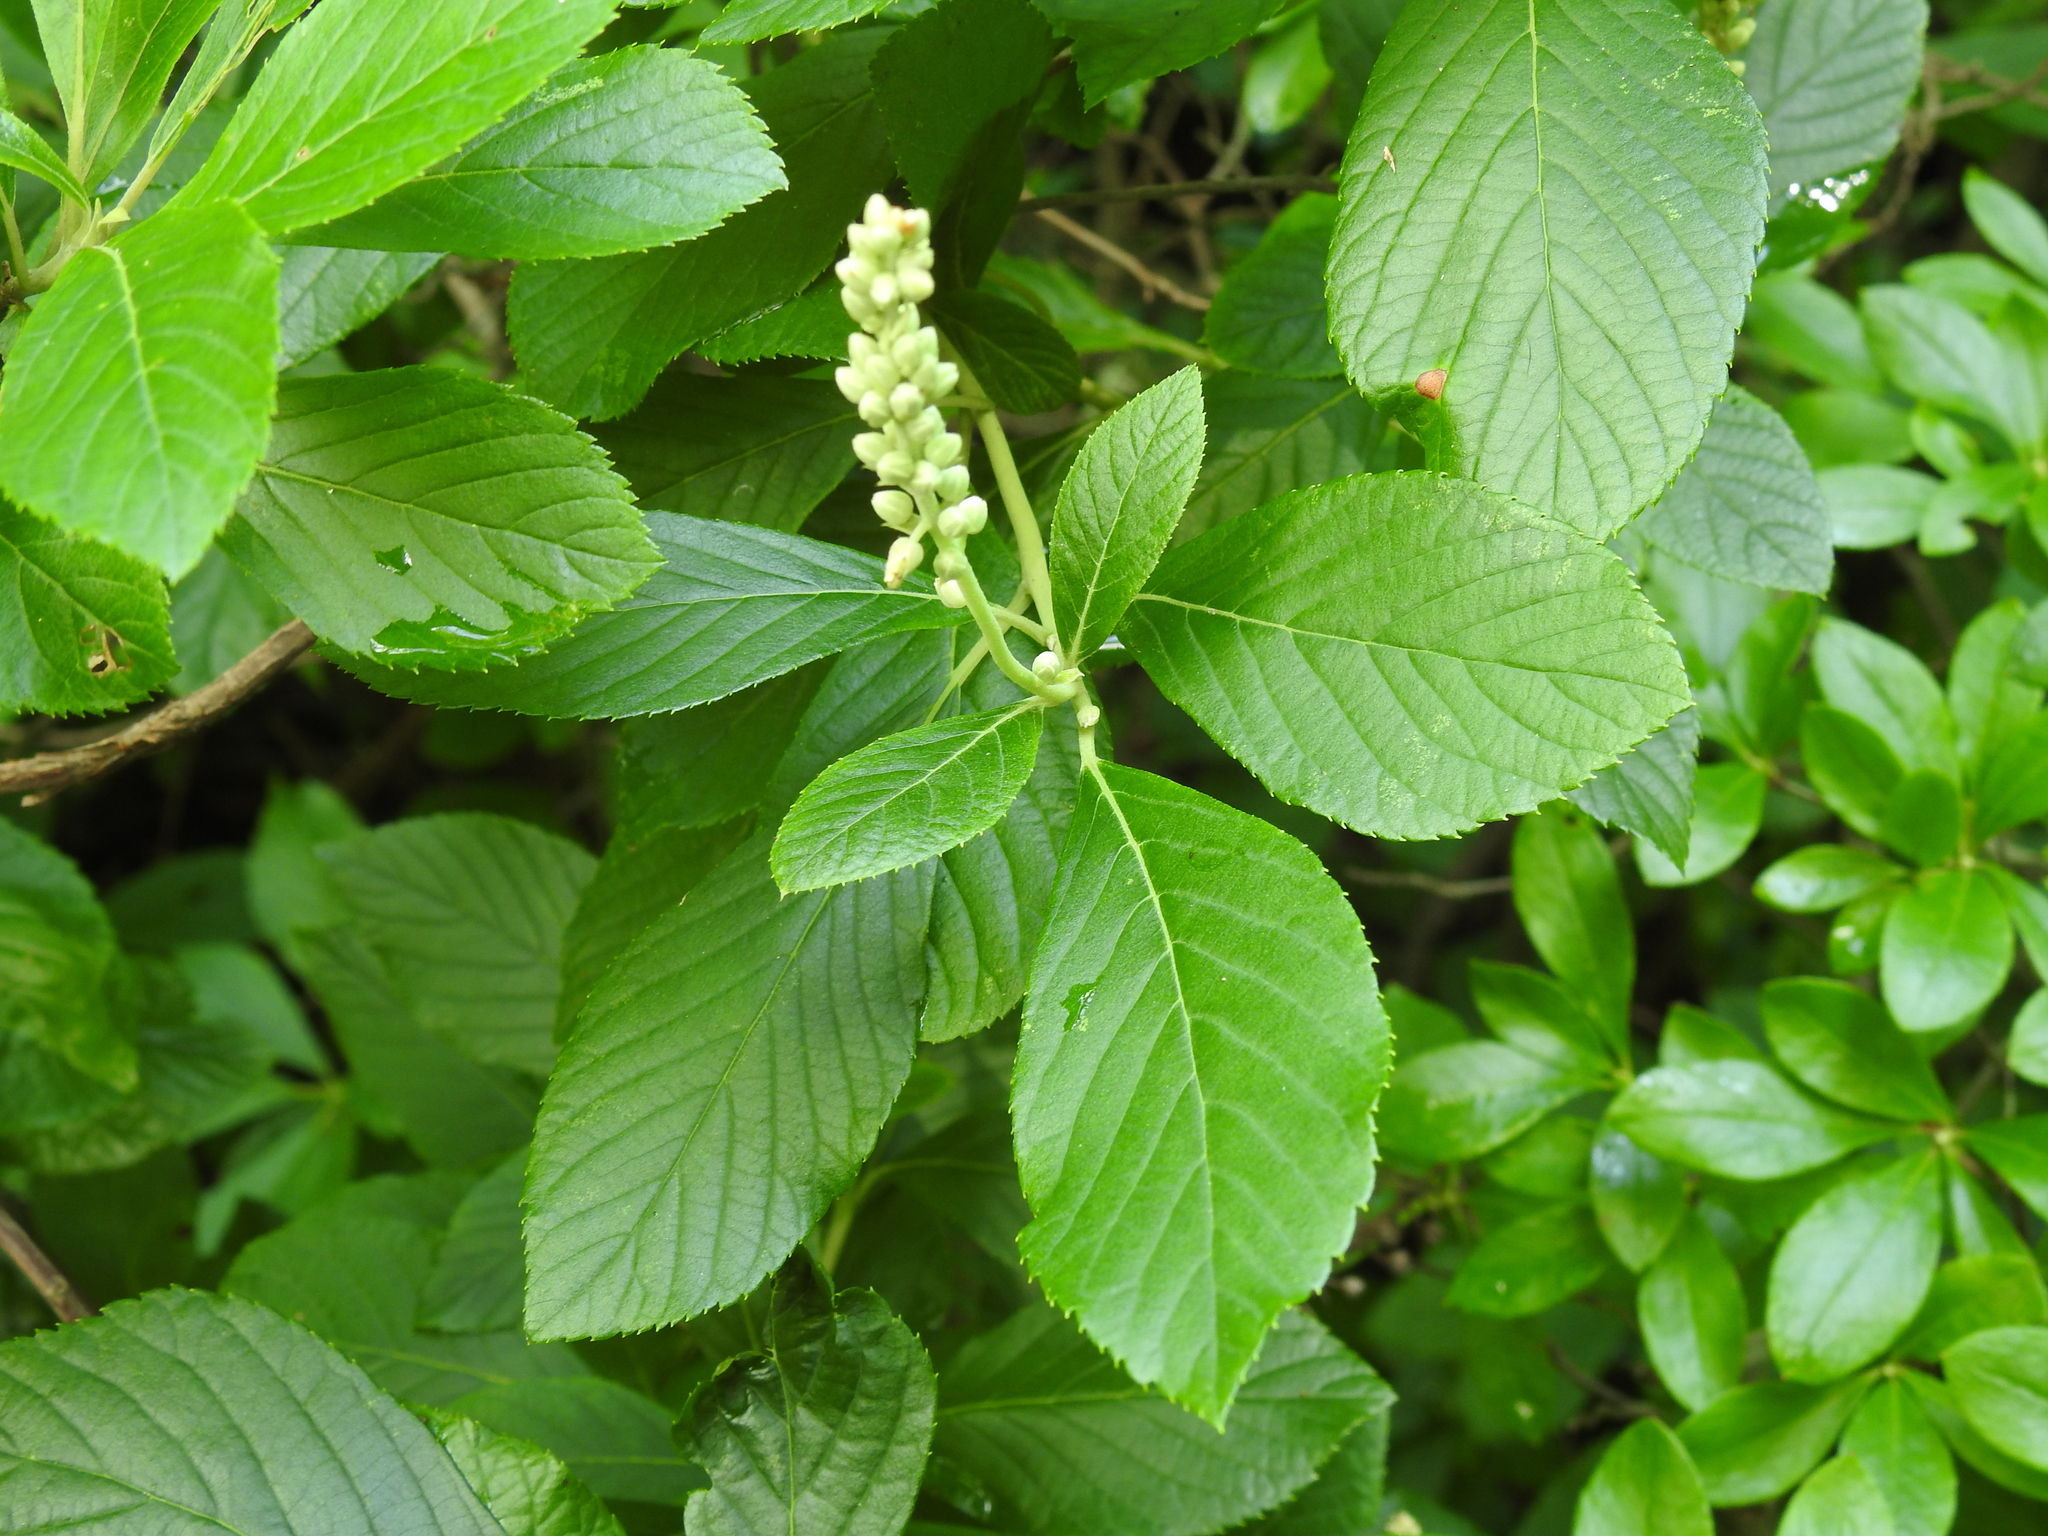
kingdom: Plantae
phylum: Tracheophyta
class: Magnoliopsida
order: Ericales
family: Clethraceae
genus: Clethra
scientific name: Clethra alnifolia
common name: Sweet pepperbush
